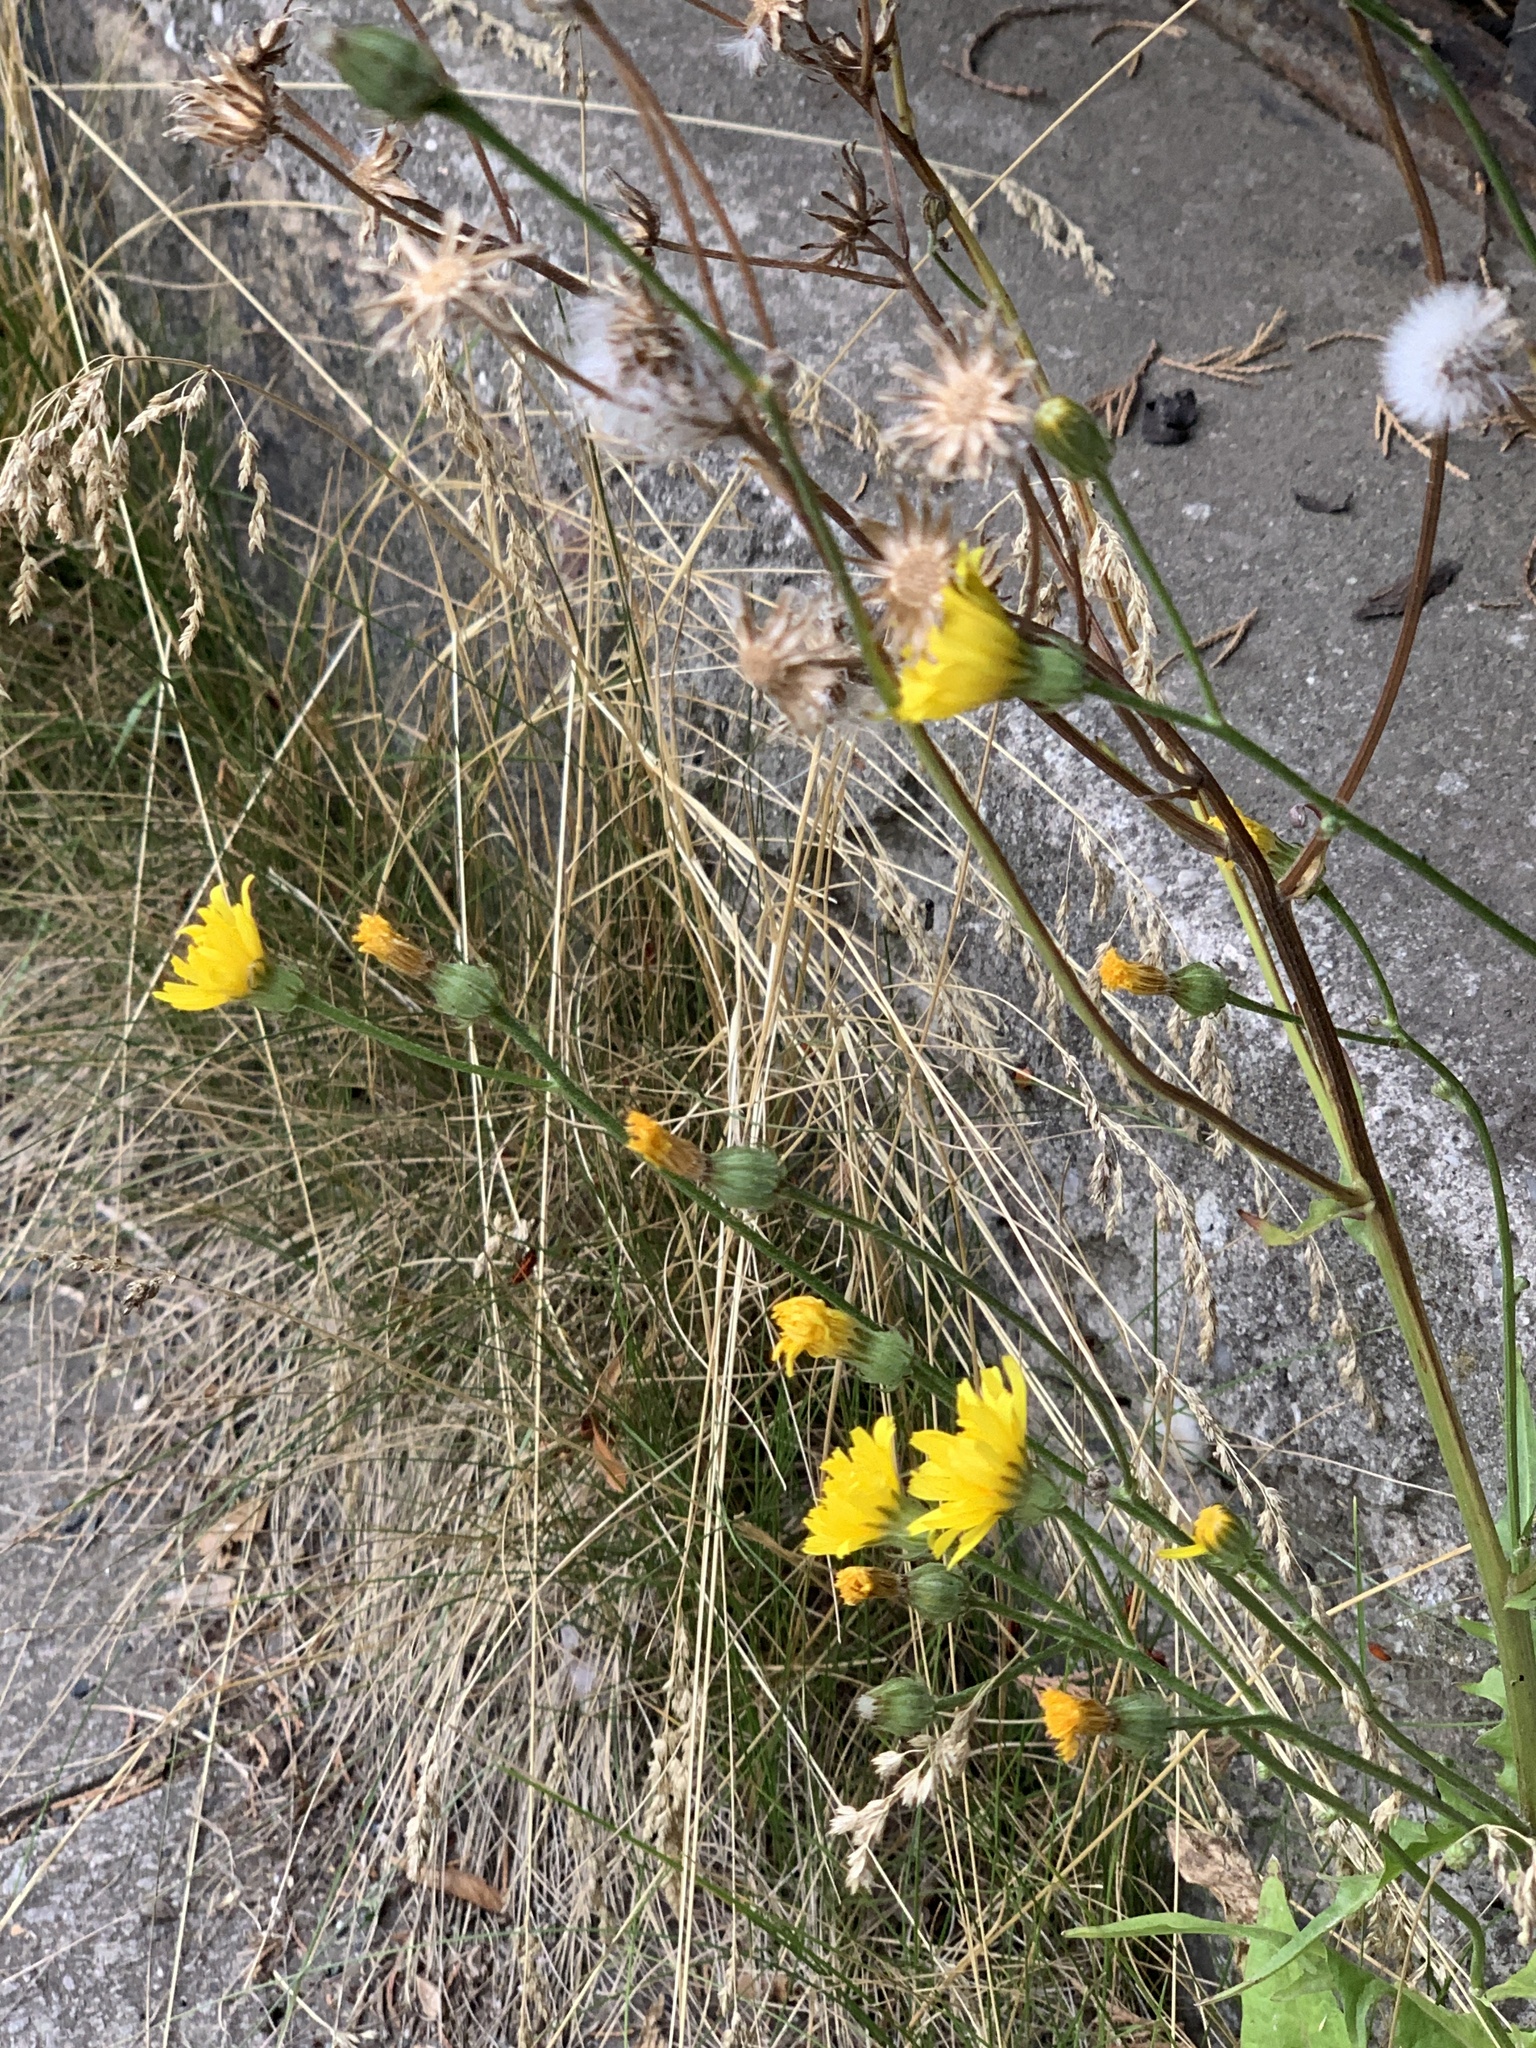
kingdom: Plantae
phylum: Tracheophyta
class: Magnoliopsida
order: Asterales
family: Asteraceae
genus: Crepis
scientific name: Crepis biennis
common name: Rough hawk's-beard
